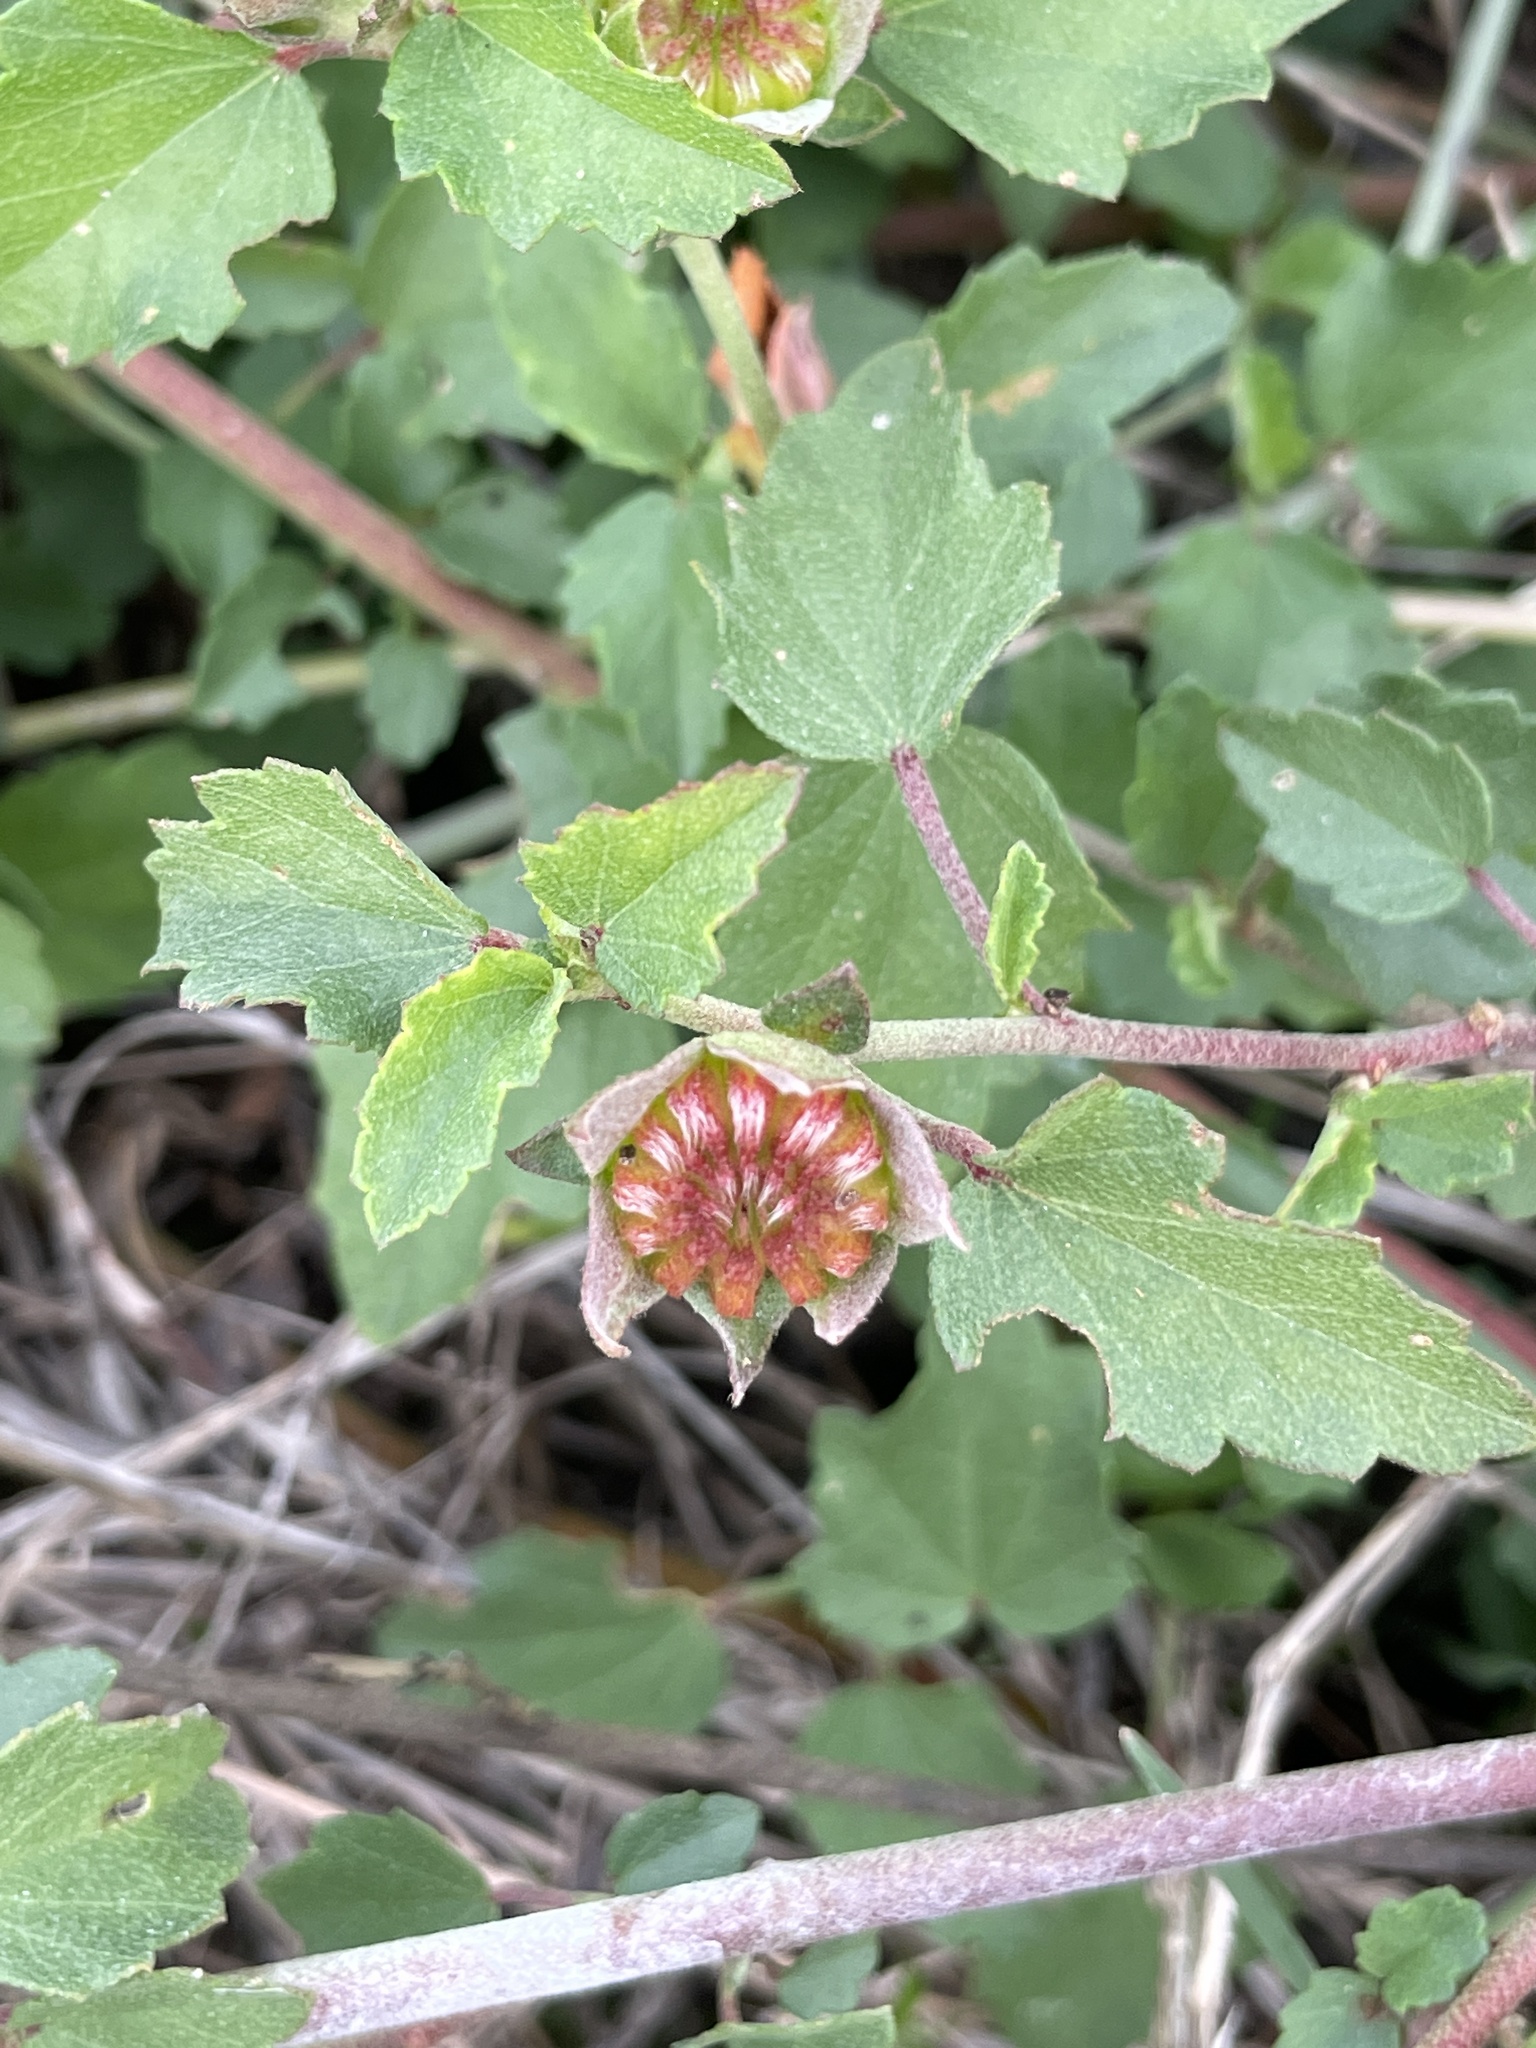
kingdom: Plantae
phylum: Tracheophyta
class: Magnoliopsida
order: Malvales
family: Malvaceae
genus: Malvastrum
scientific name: Malvastrum aurantiacum
